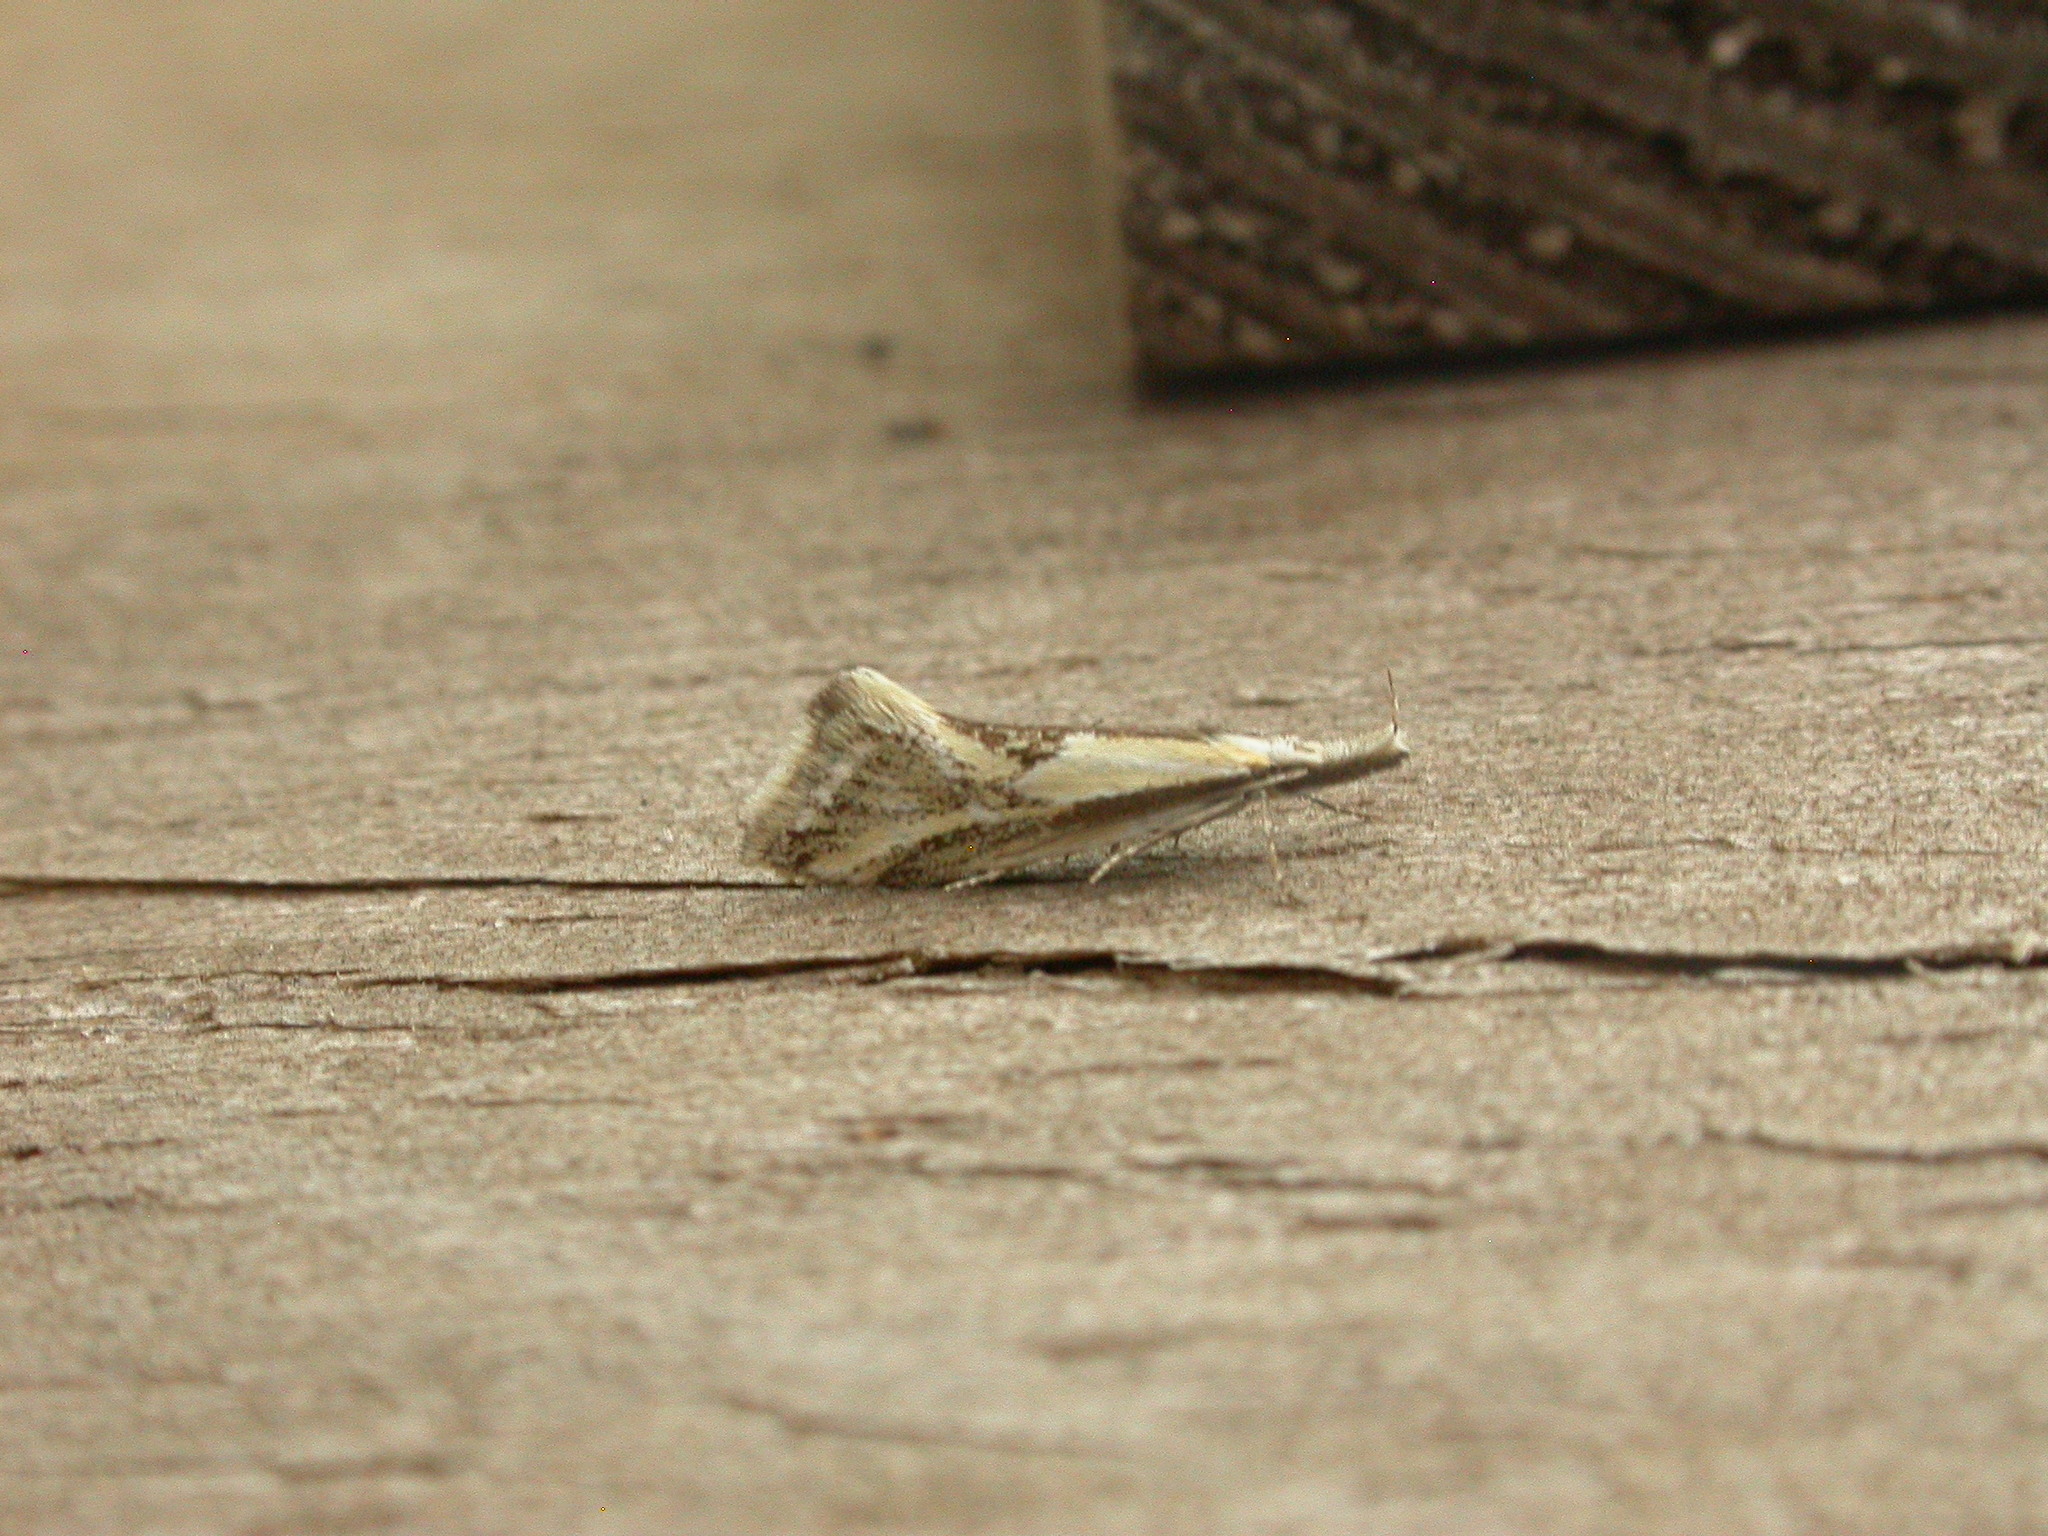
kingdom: Animalia
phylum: Arthropoda
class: Insecta
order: Lepidoptera
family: Oecophoridae
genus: Thema
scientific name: Thema macroscia
